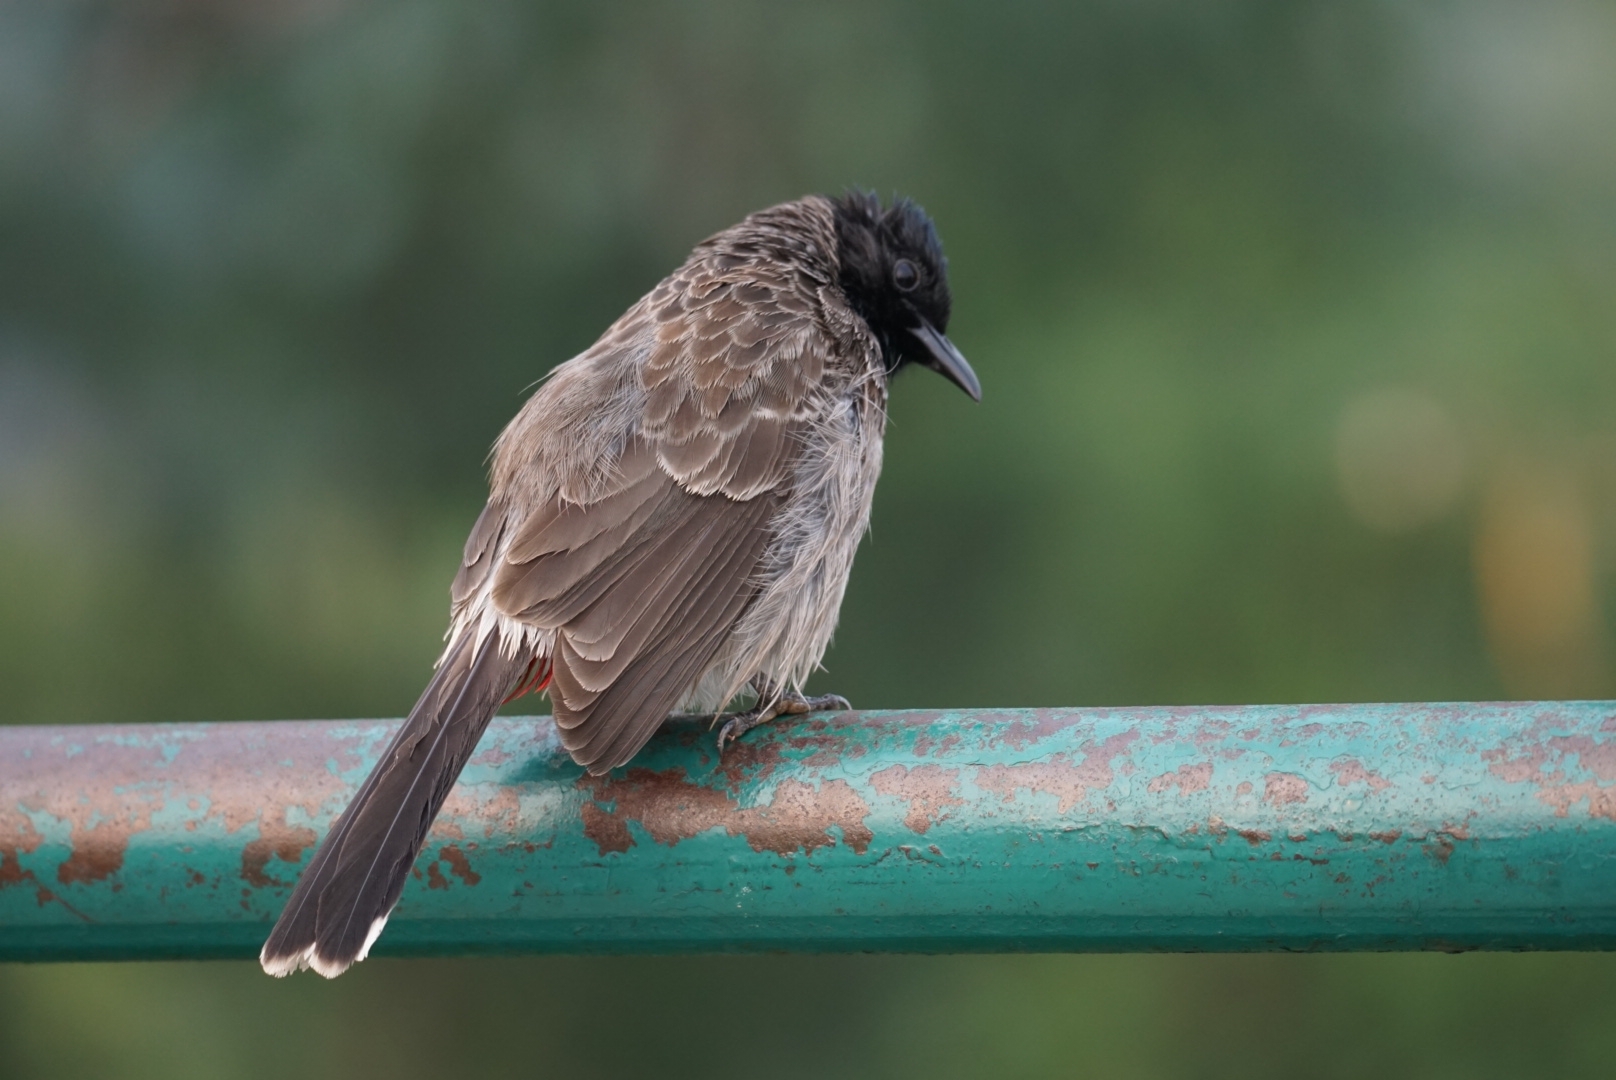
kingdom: Animalia
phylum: Chordata
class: Aves
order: Passeriformes
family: Pycnonotidae
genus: Pycnonotus
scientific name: Pycnonotus cafer
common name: Red-vented bulbul
